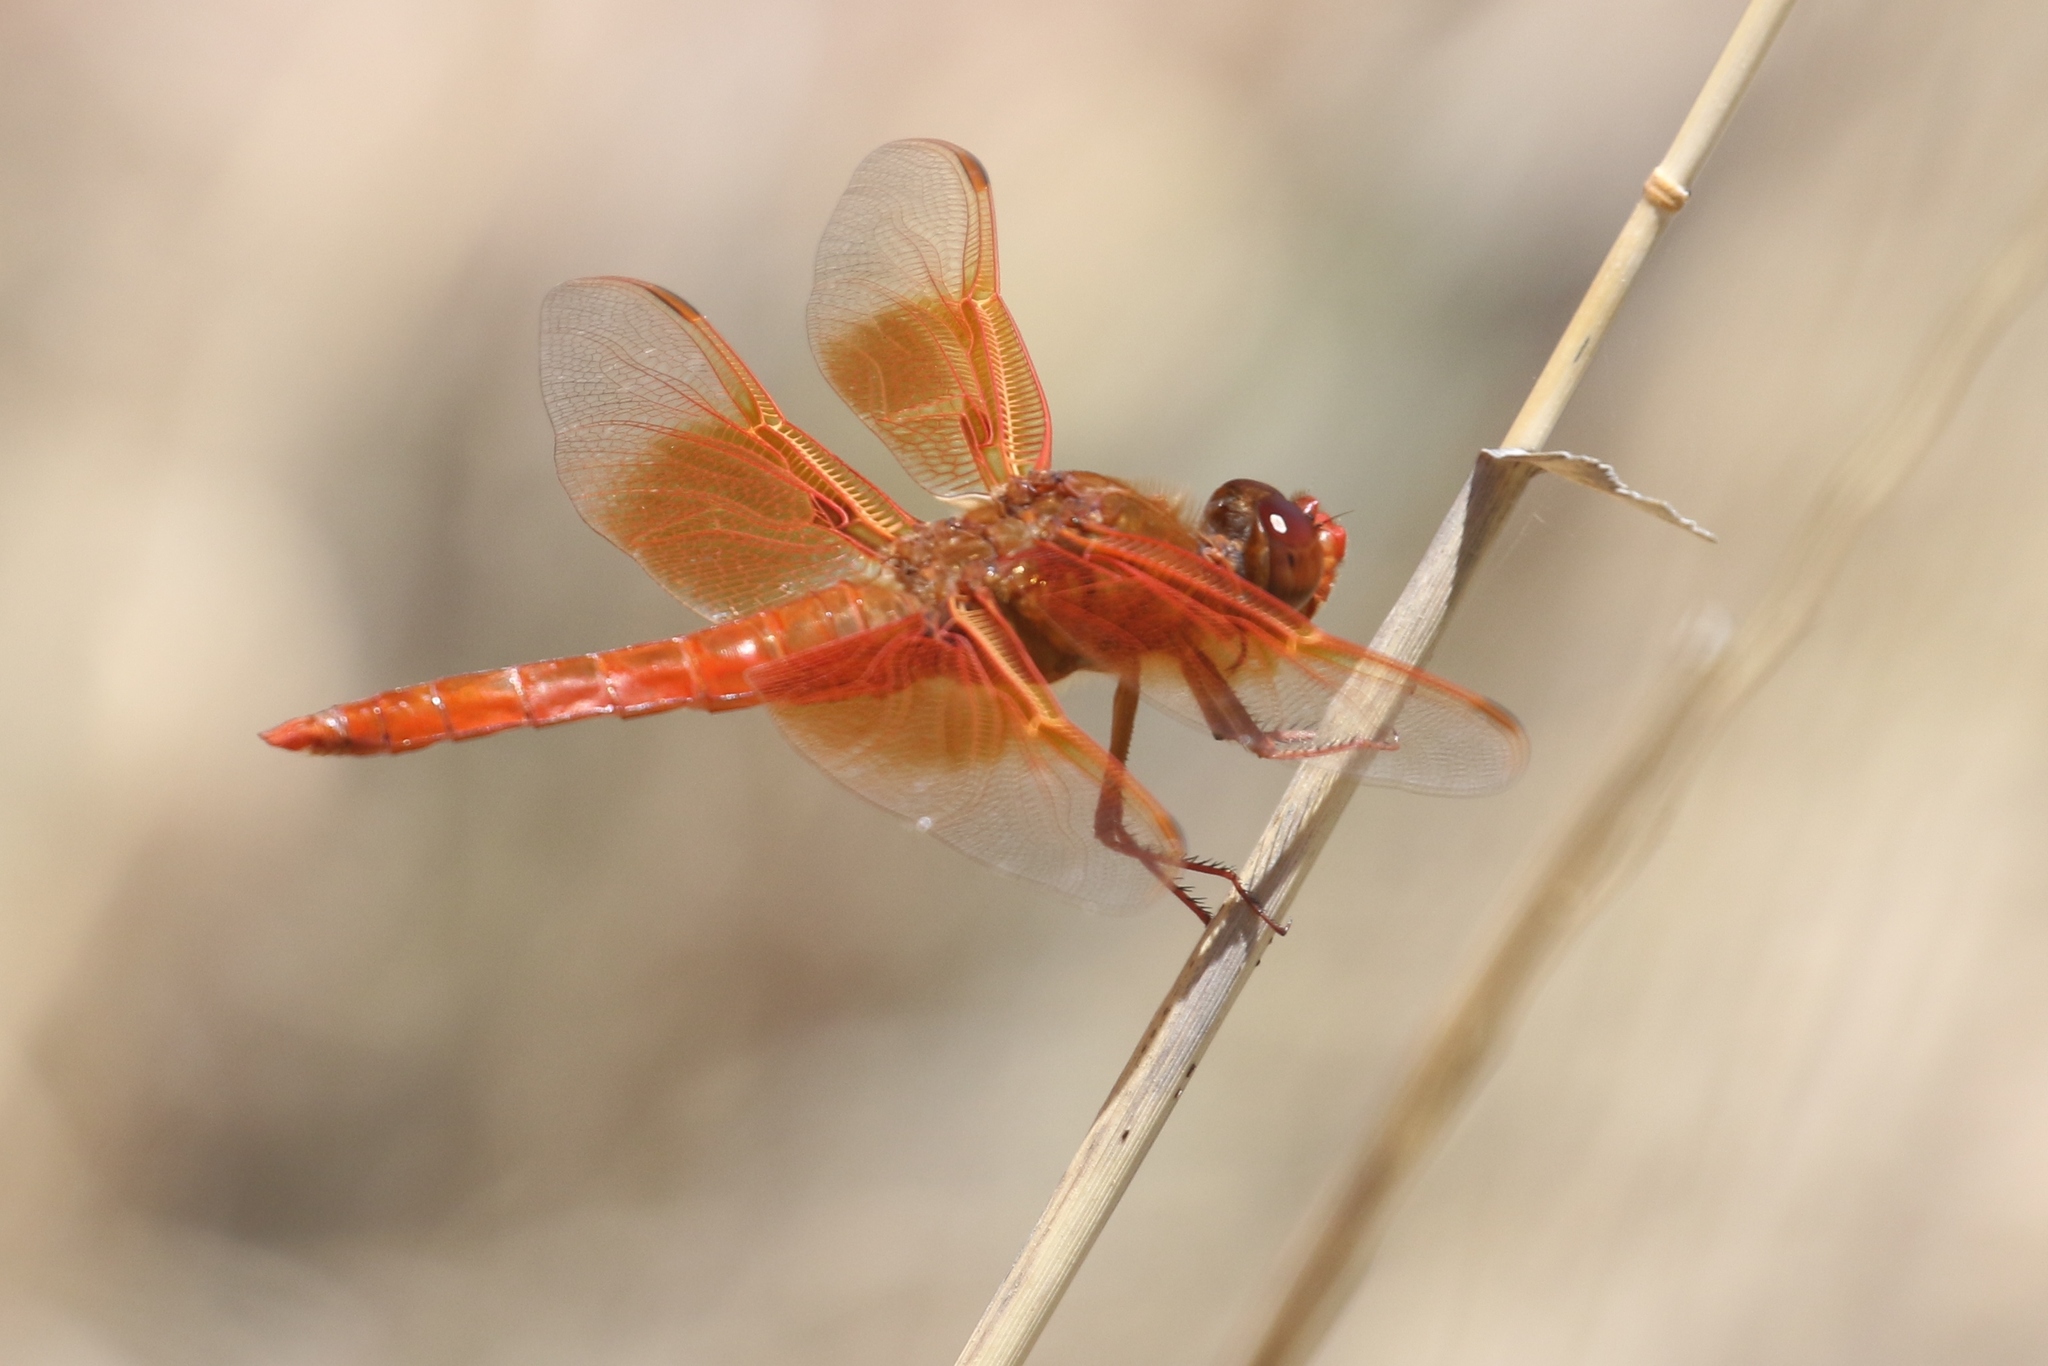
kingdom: Animalia
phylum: Arthropoda
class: Insecta
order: Odonata
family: Libellulidae
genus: Libellula
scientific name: Libellula saturata
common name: Flame skimmer
